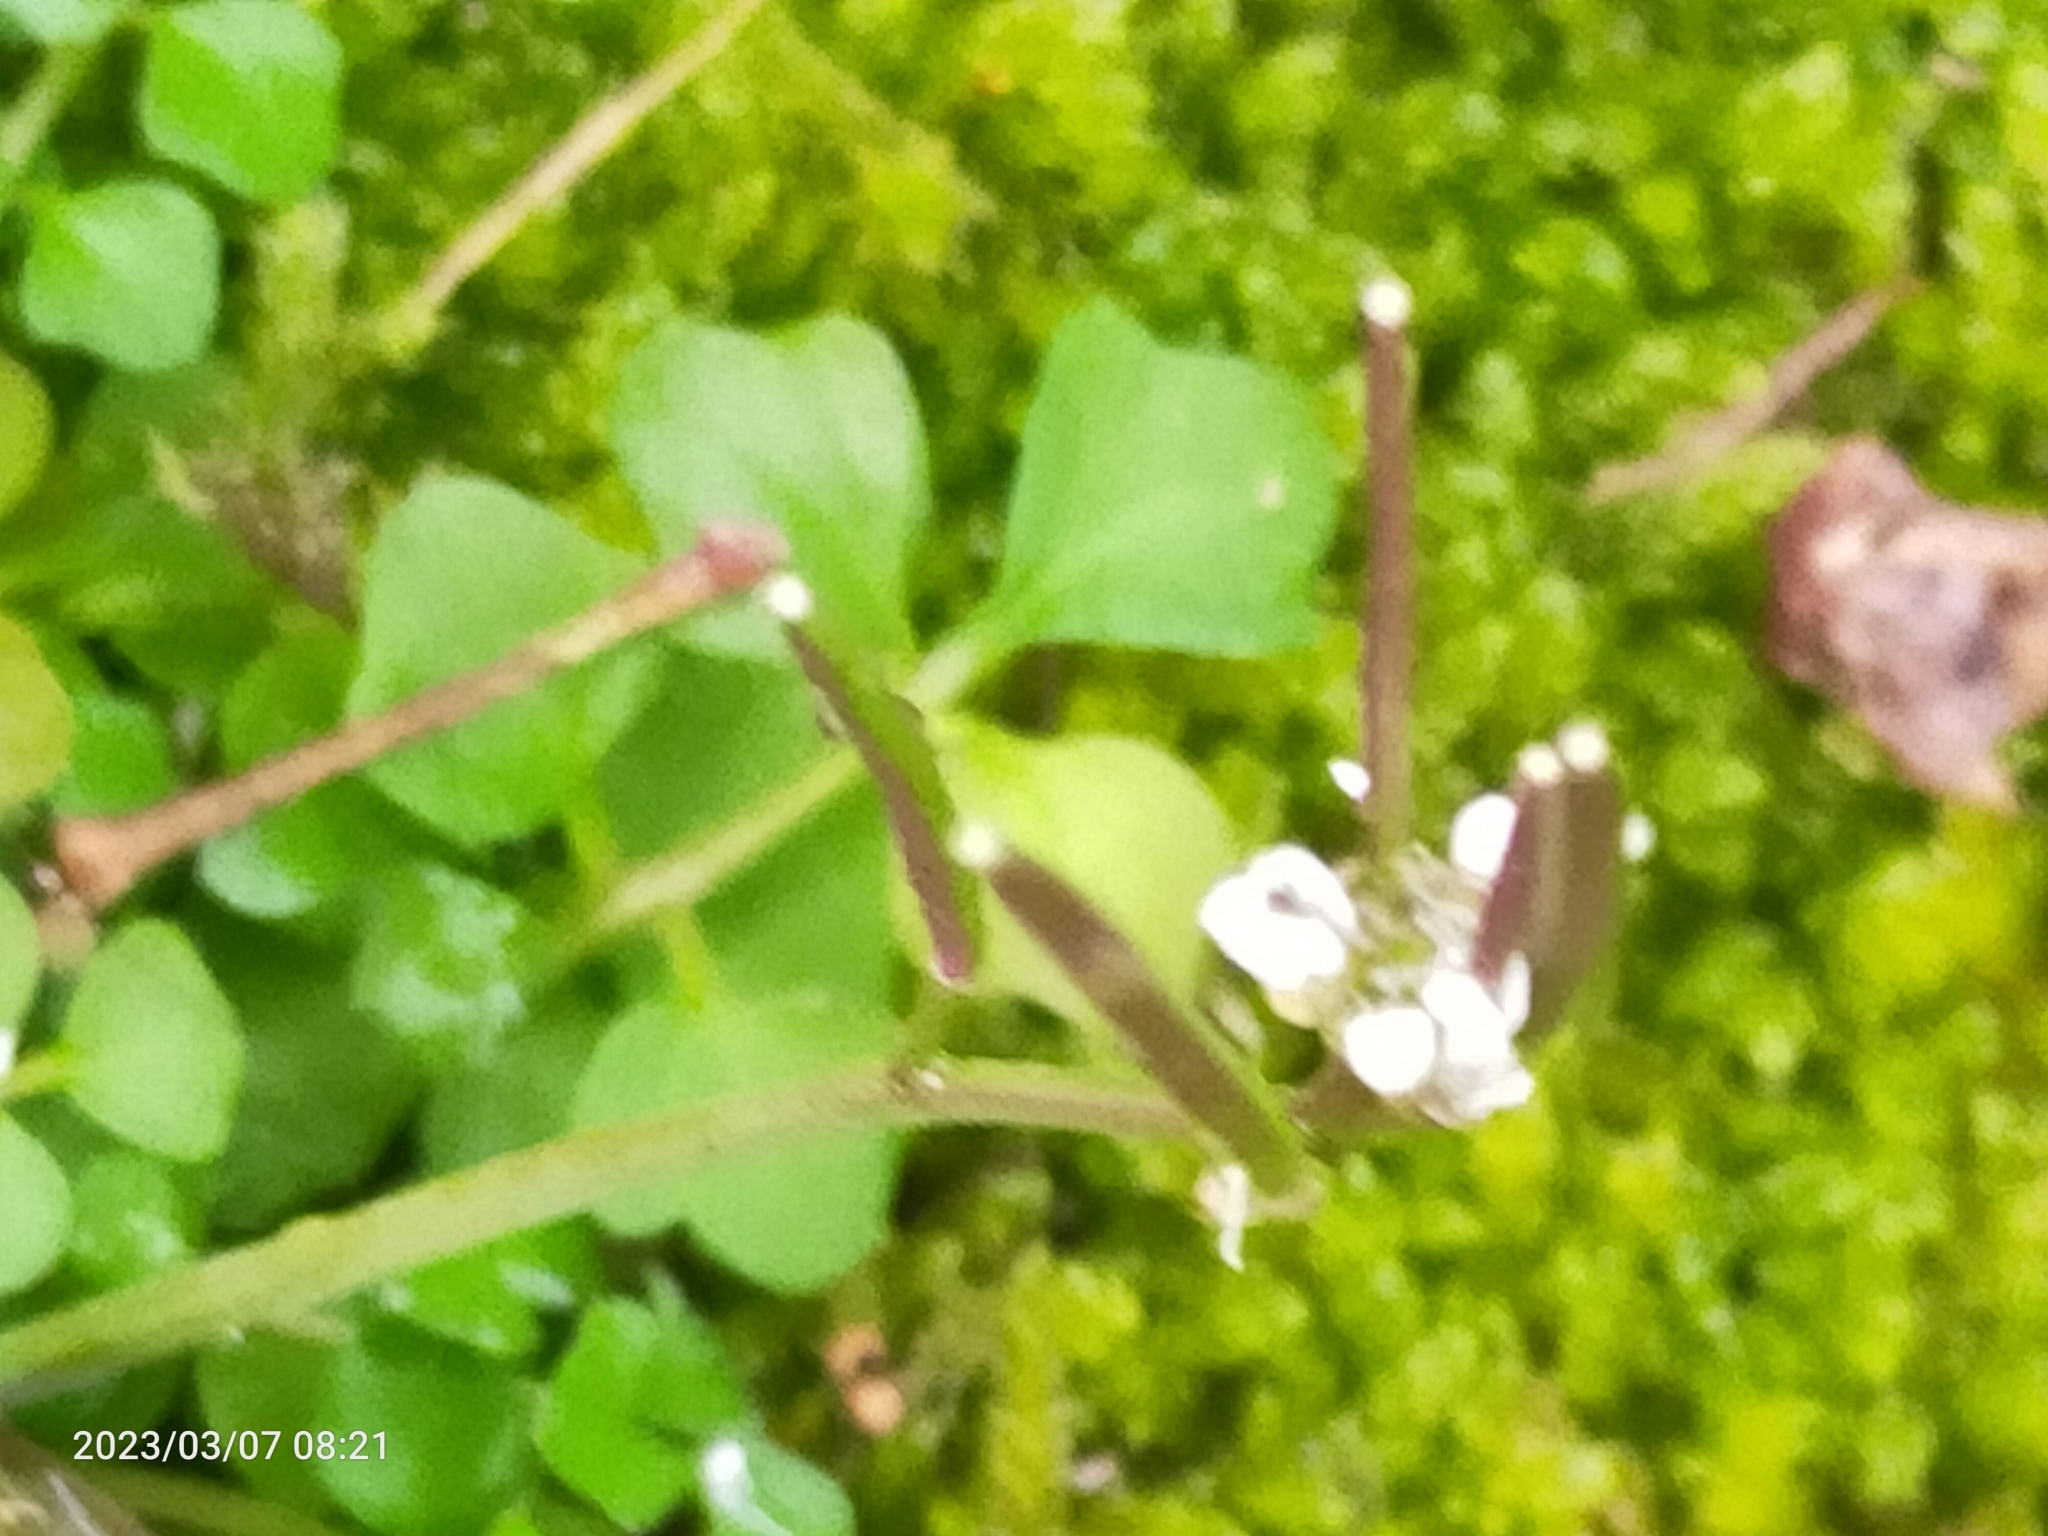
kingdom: Plantae
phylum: Tracheophyta
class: Magnoliopsida
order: Brassicales
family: Brassicaceae
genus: Cardamine
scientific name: Cardamine hirsuta
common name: Hairy bittercress
